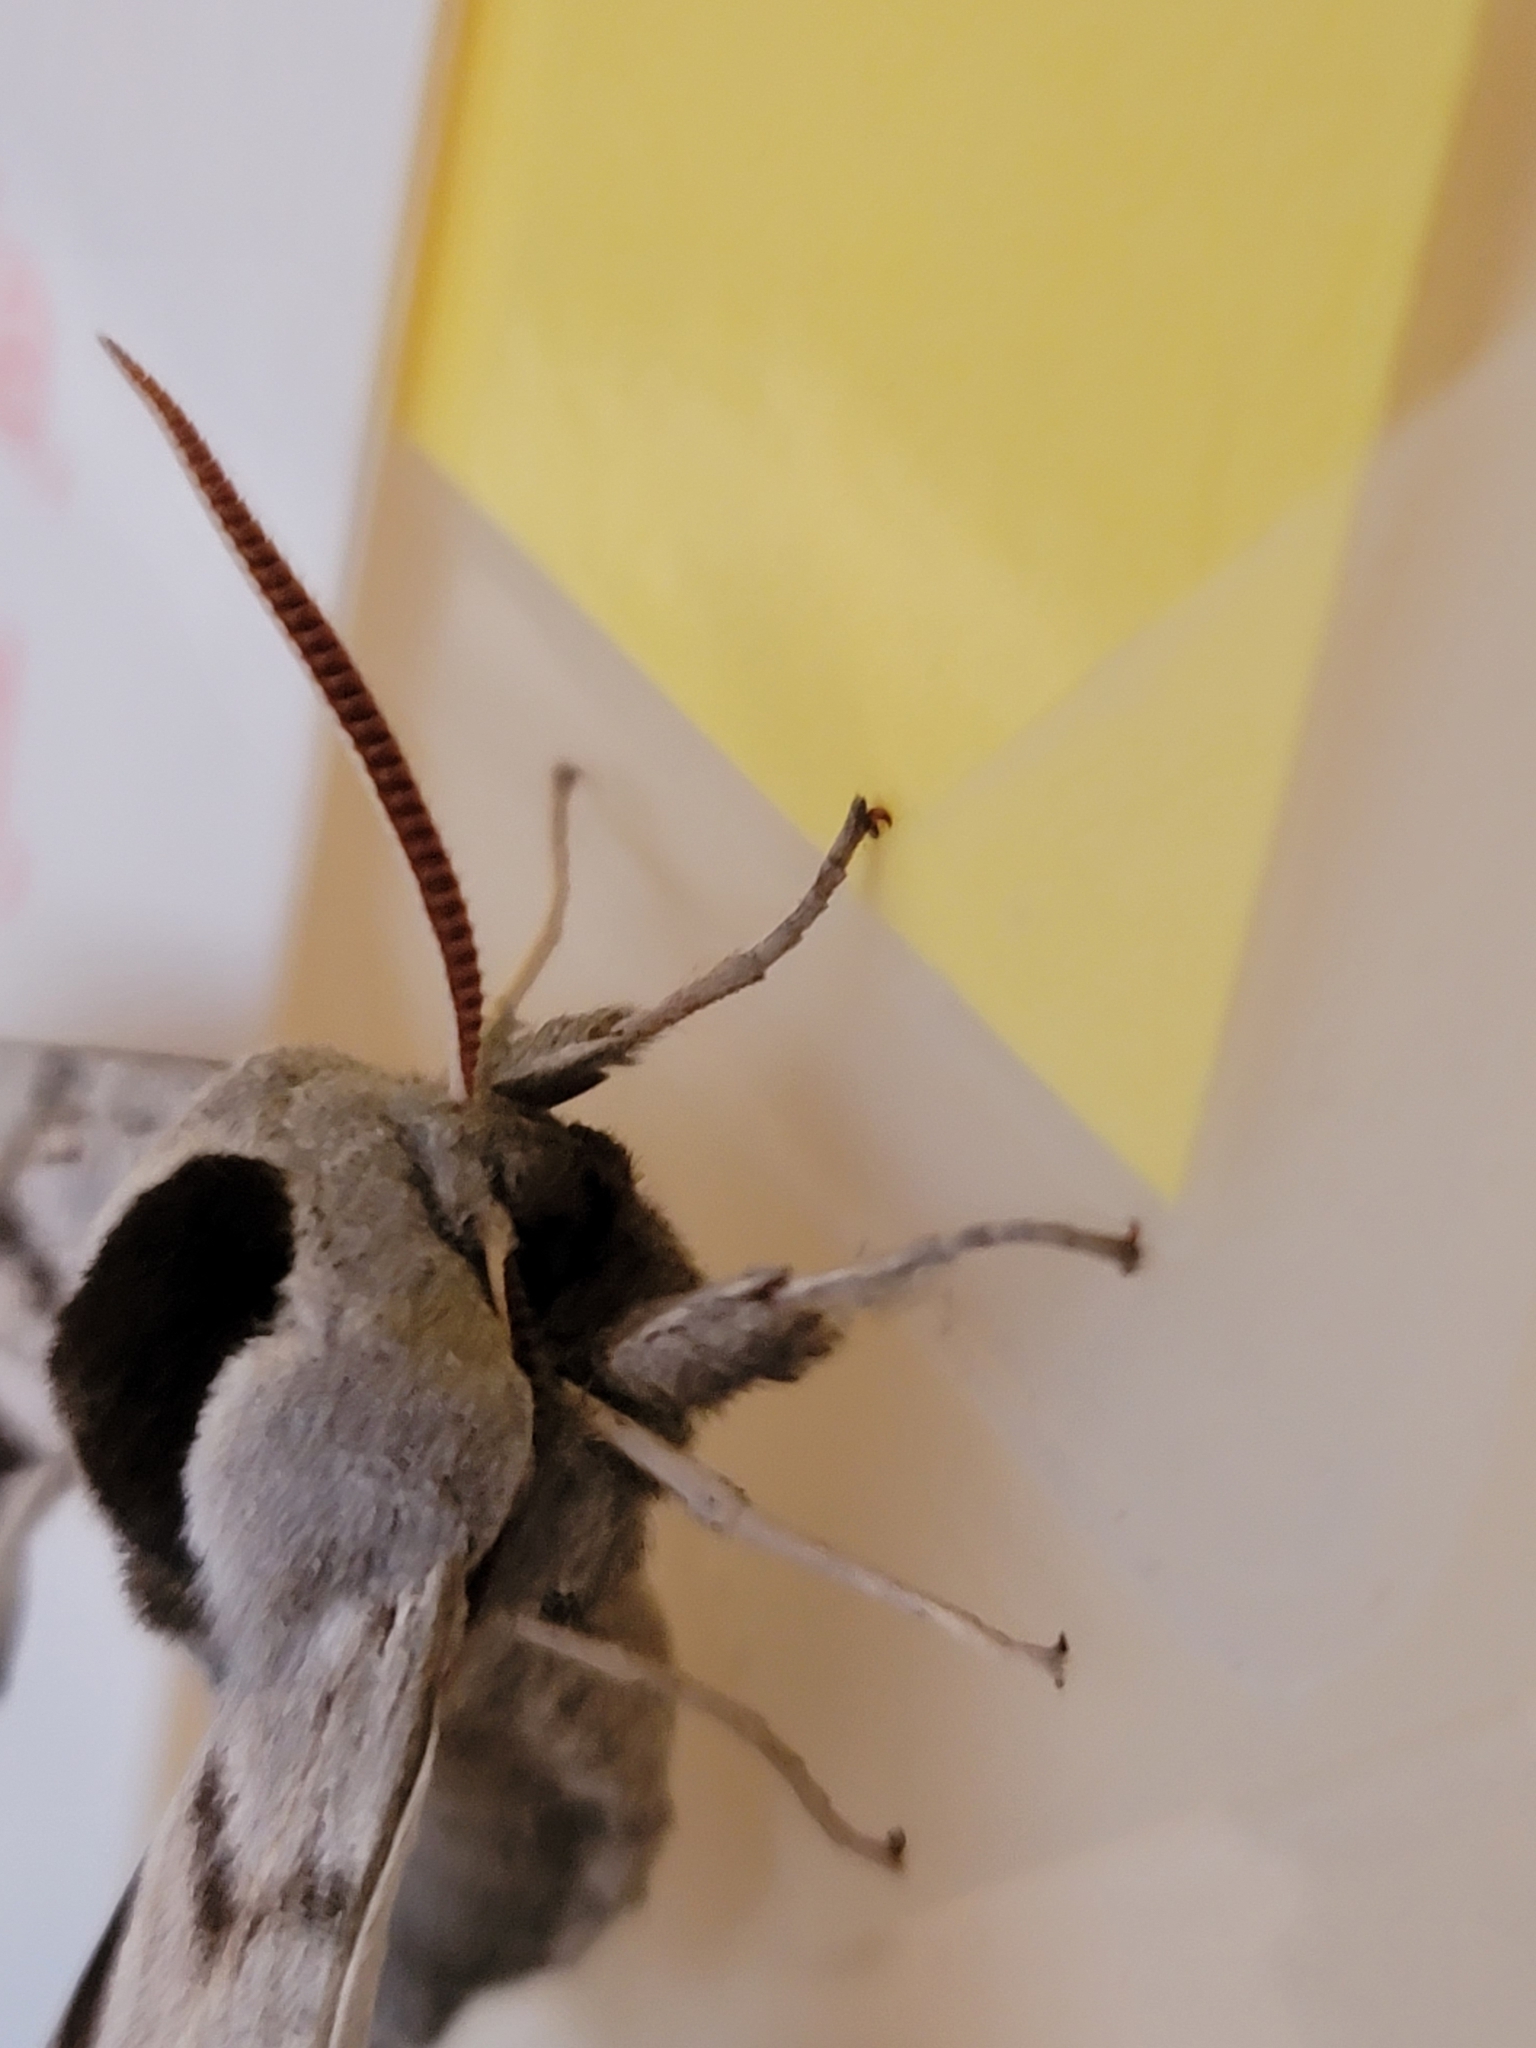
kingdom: Animalia
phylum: Arthropoda
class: Insecta
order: Lepidoptera
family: Sphingidae
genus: Smerinthus
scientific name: Smerinthus cerisyi
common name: Cerisy's sphinx moth
